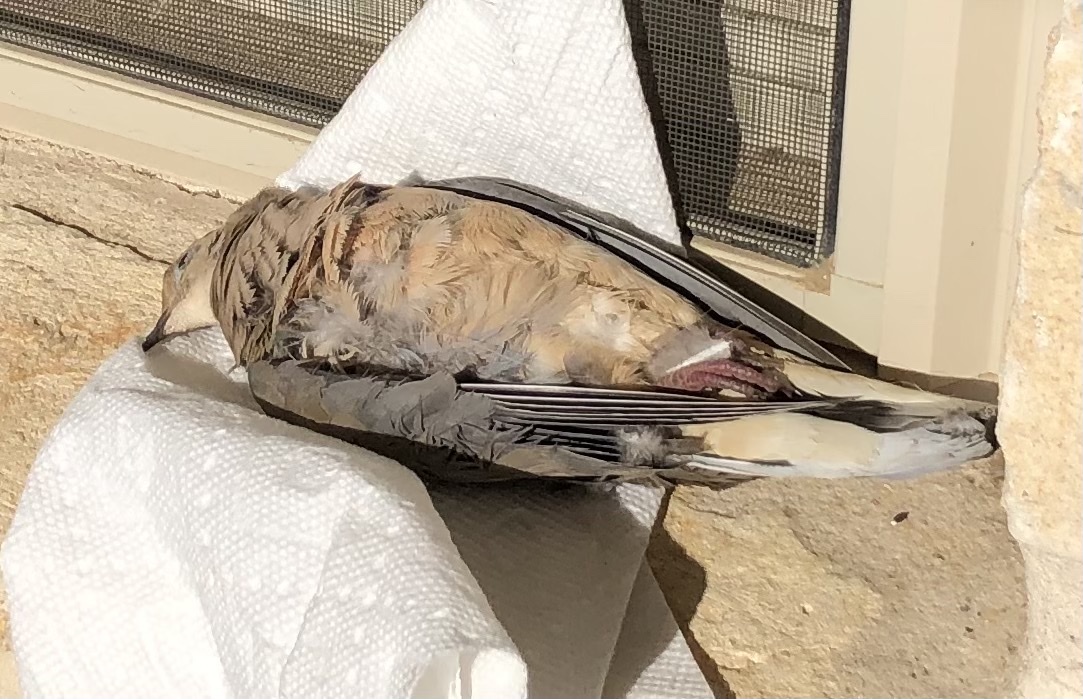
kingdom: Animalia
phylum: Chordata
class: Aves
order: Columbiformes
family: Columbidae
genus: Zenaida
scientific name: Zenaida macroura
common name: Mourning dove
